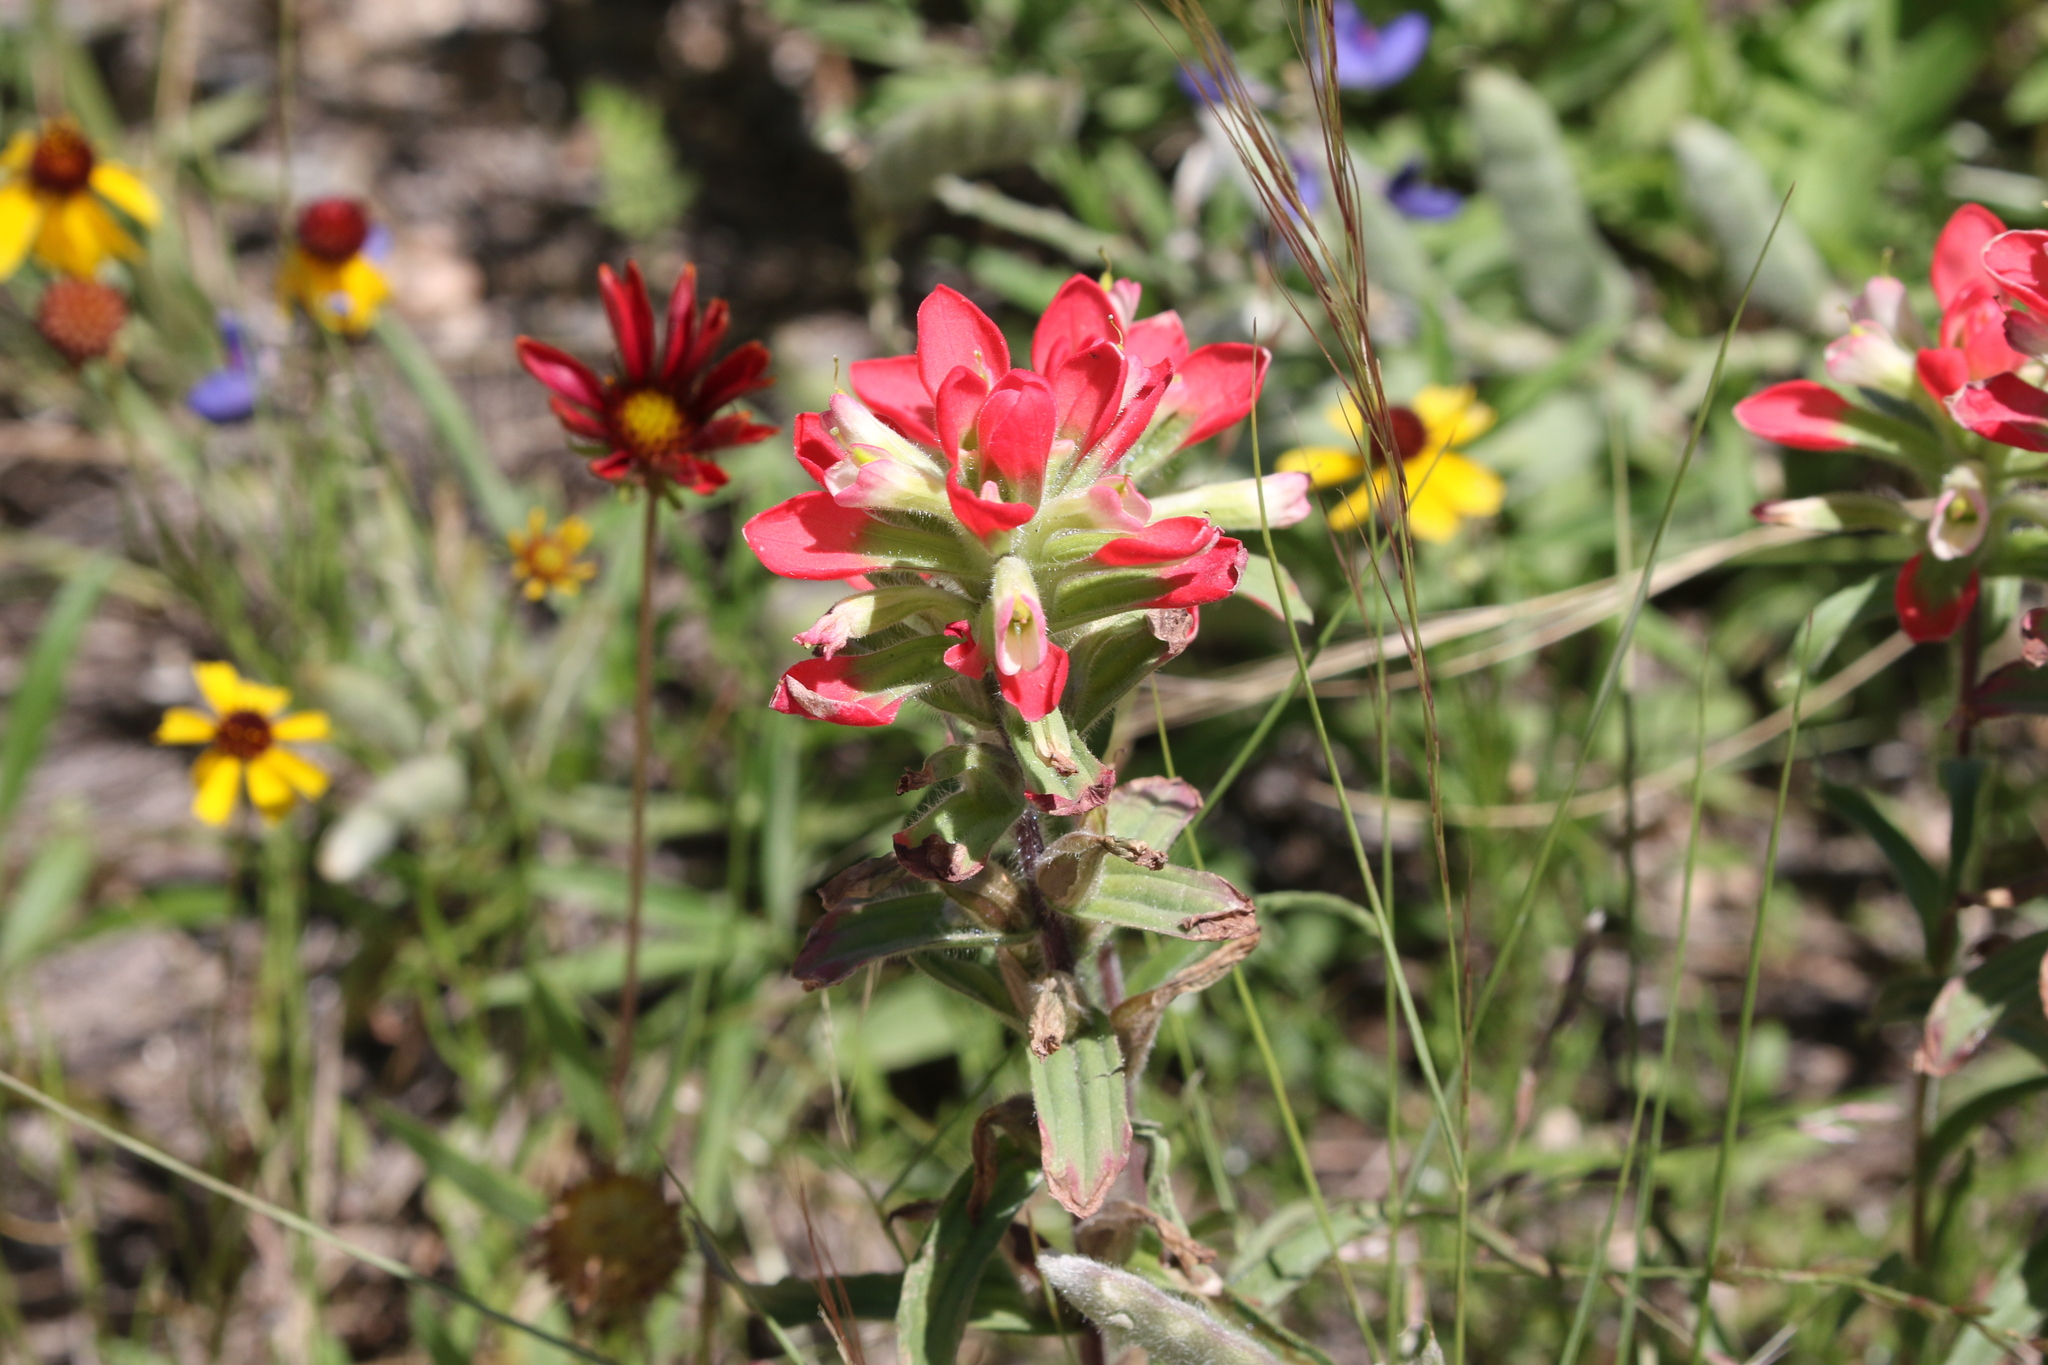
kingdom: Plantae
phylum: Tracheophyta
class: Magnoliopsida
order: Lamiales
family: Orobanchaceae
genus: Castilleja
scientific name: Castilleja indivisa
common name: Texas paintbrush
